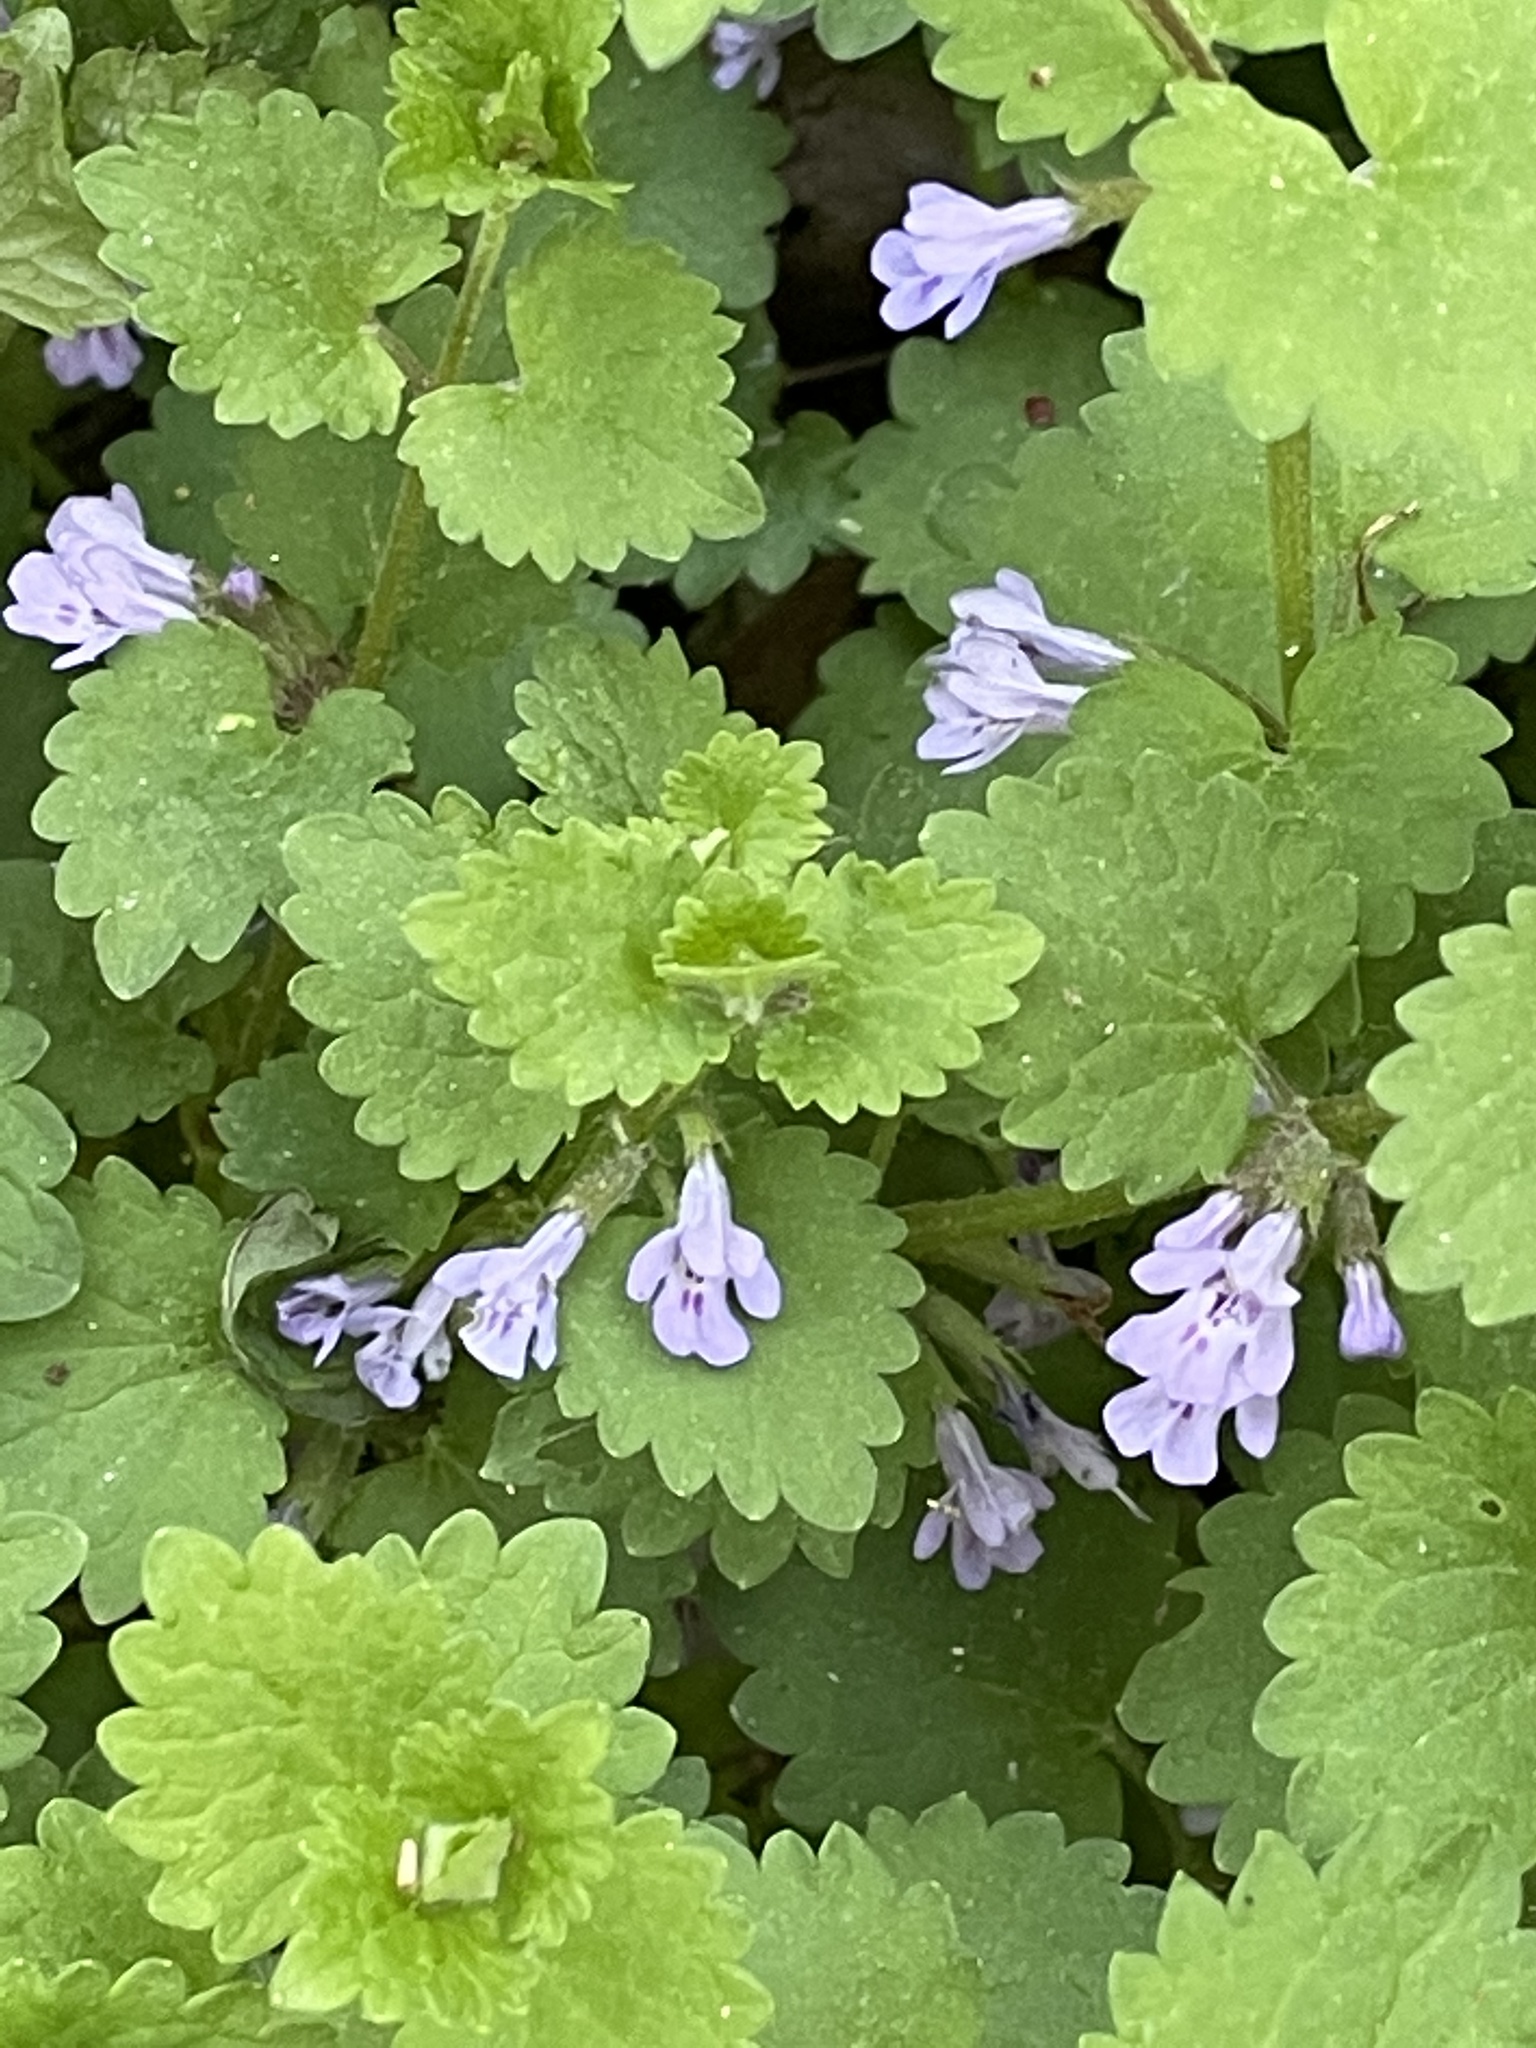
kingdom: Plantae
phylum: Tracheophyta
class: Magnoliopsida
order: Lamiales
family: Lamiaceae
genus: Glechoma
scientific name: Glechoma hederacea
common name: Ground ivy
